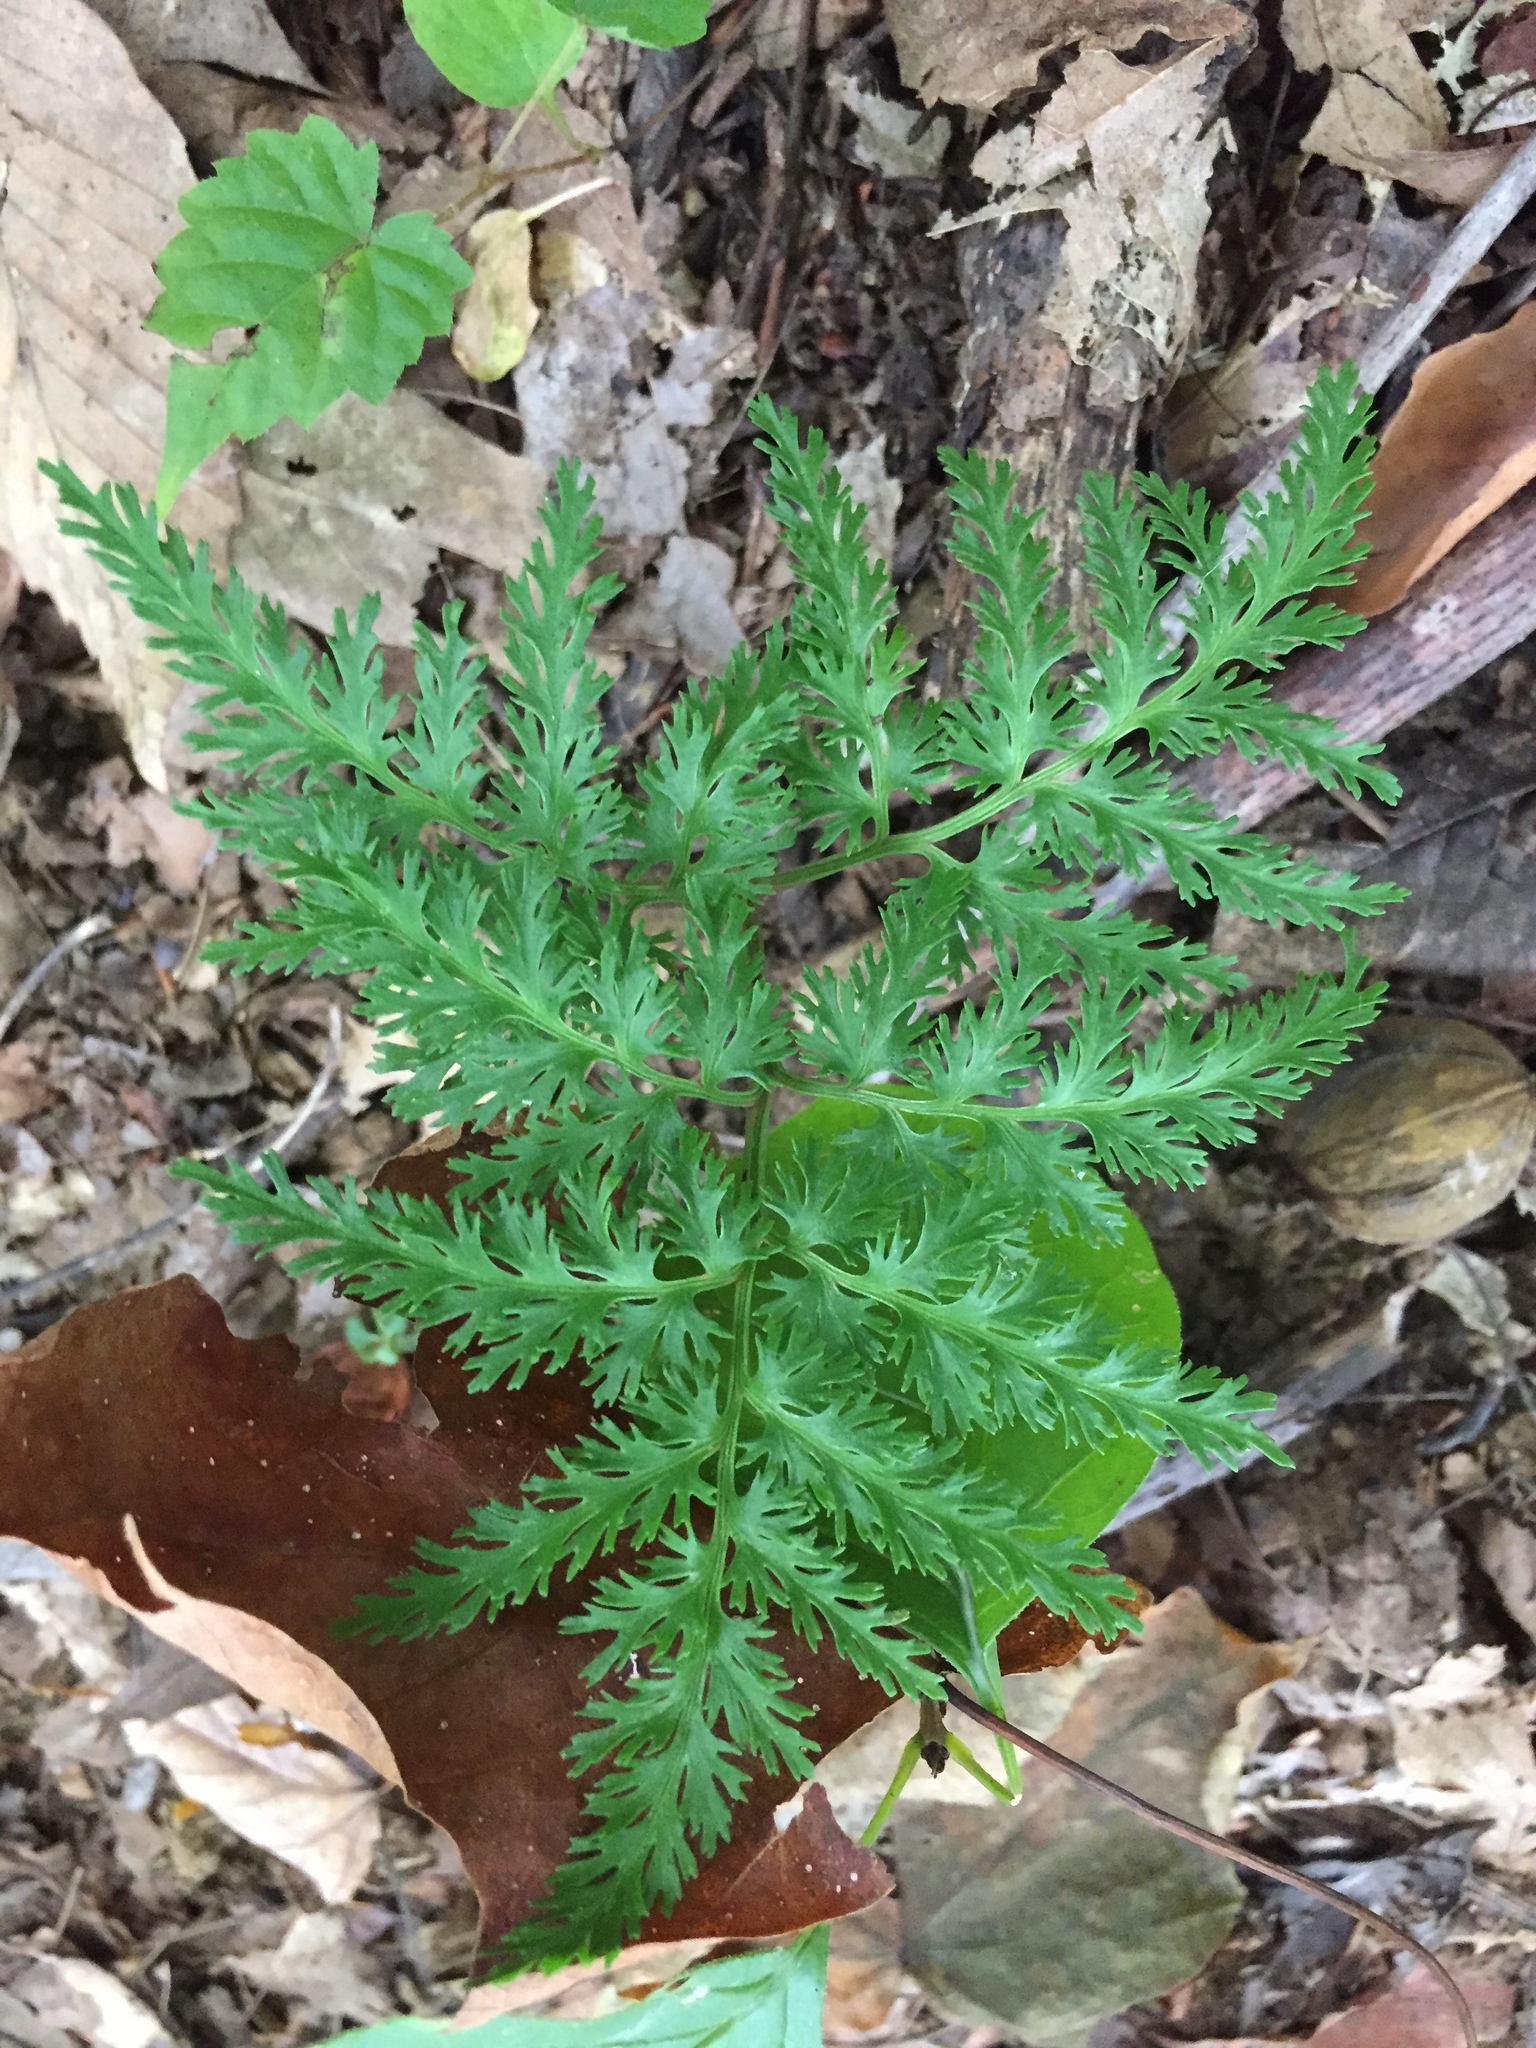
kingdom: Plantae
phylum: Tracheophyta
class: Polypodiopsida
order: Ophioglossales
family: Ophioglossaceae
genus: Sceptridium
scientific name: Sceptridium dissectum
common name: Cut-leaved grapefern
